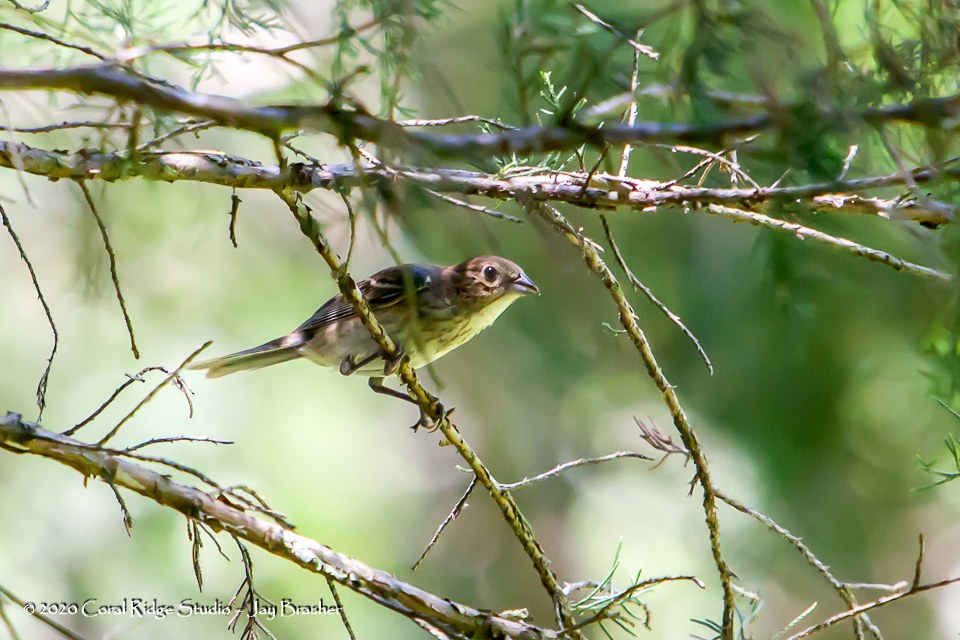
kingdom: Animalia
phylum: Chordata
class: Aves
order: Passeriformes
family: Cardinalidae
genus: Passerina
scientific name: Passerina cyanea
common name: Indigo bunting
